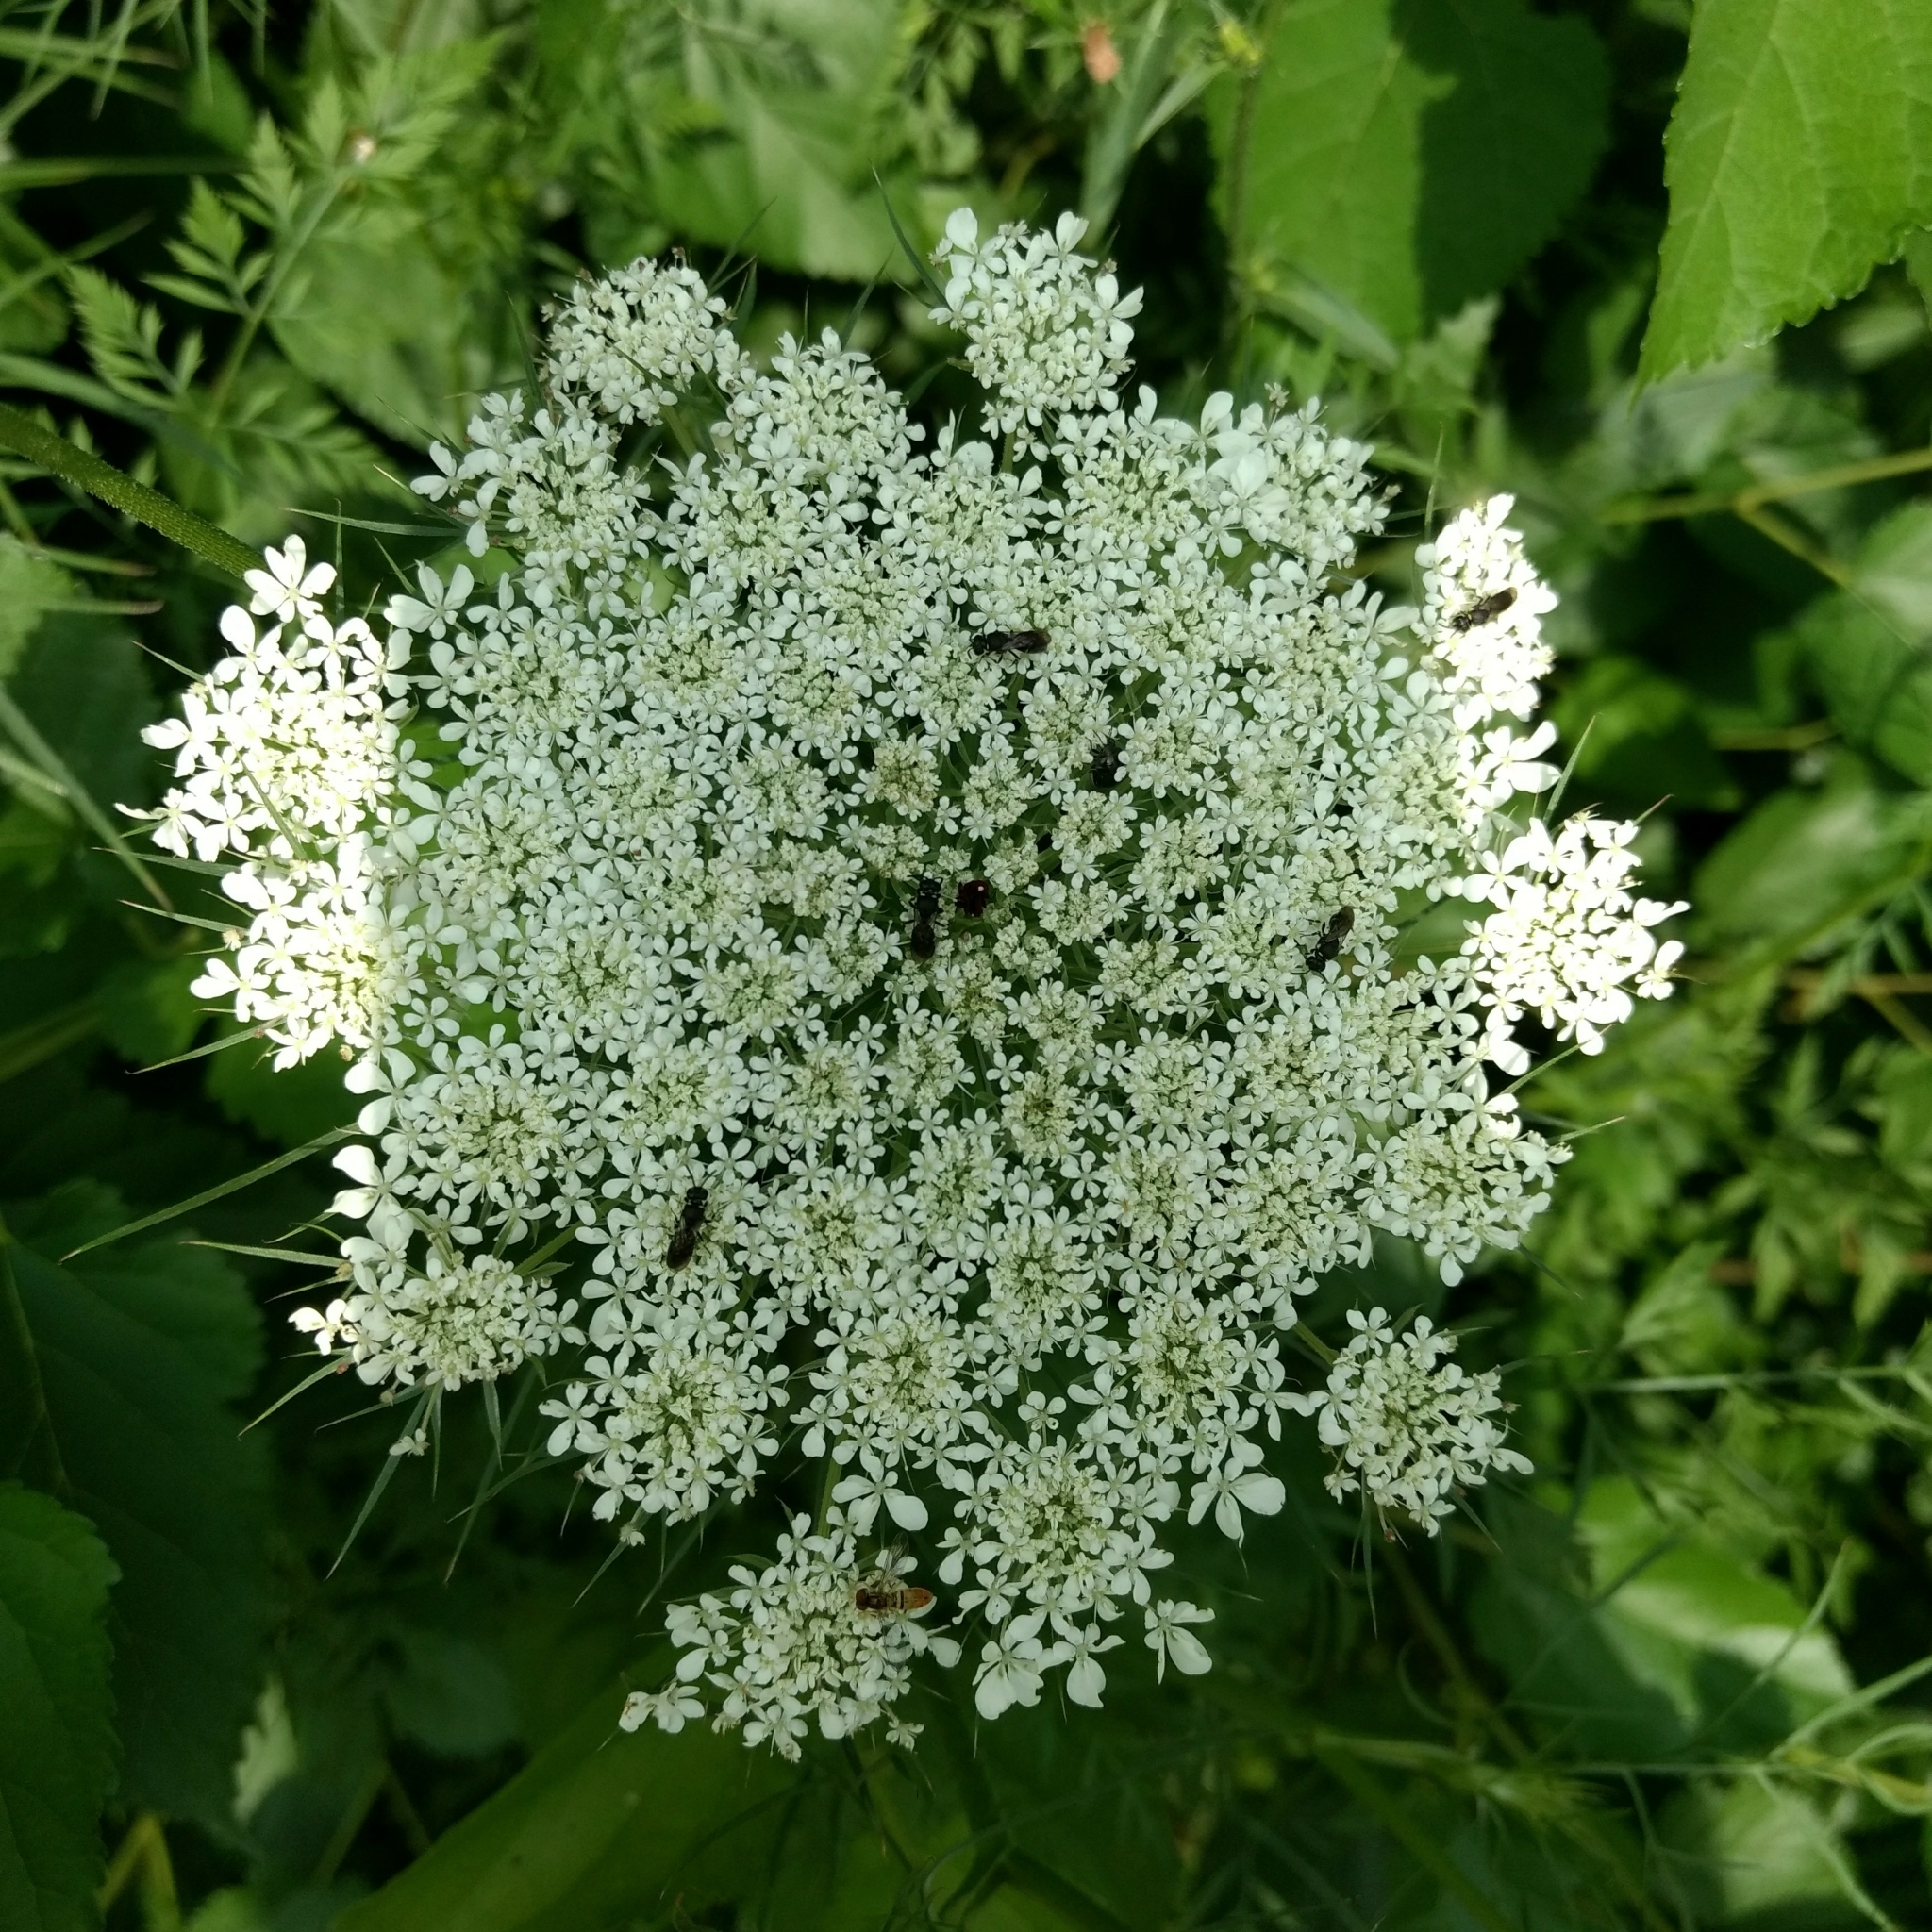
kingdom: Plantae
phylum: Tracheophyta
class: Magnoliopsida
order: Apiales
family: Apiaceae
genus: Daucus
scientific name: Daucus carota
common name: Wild carrot
